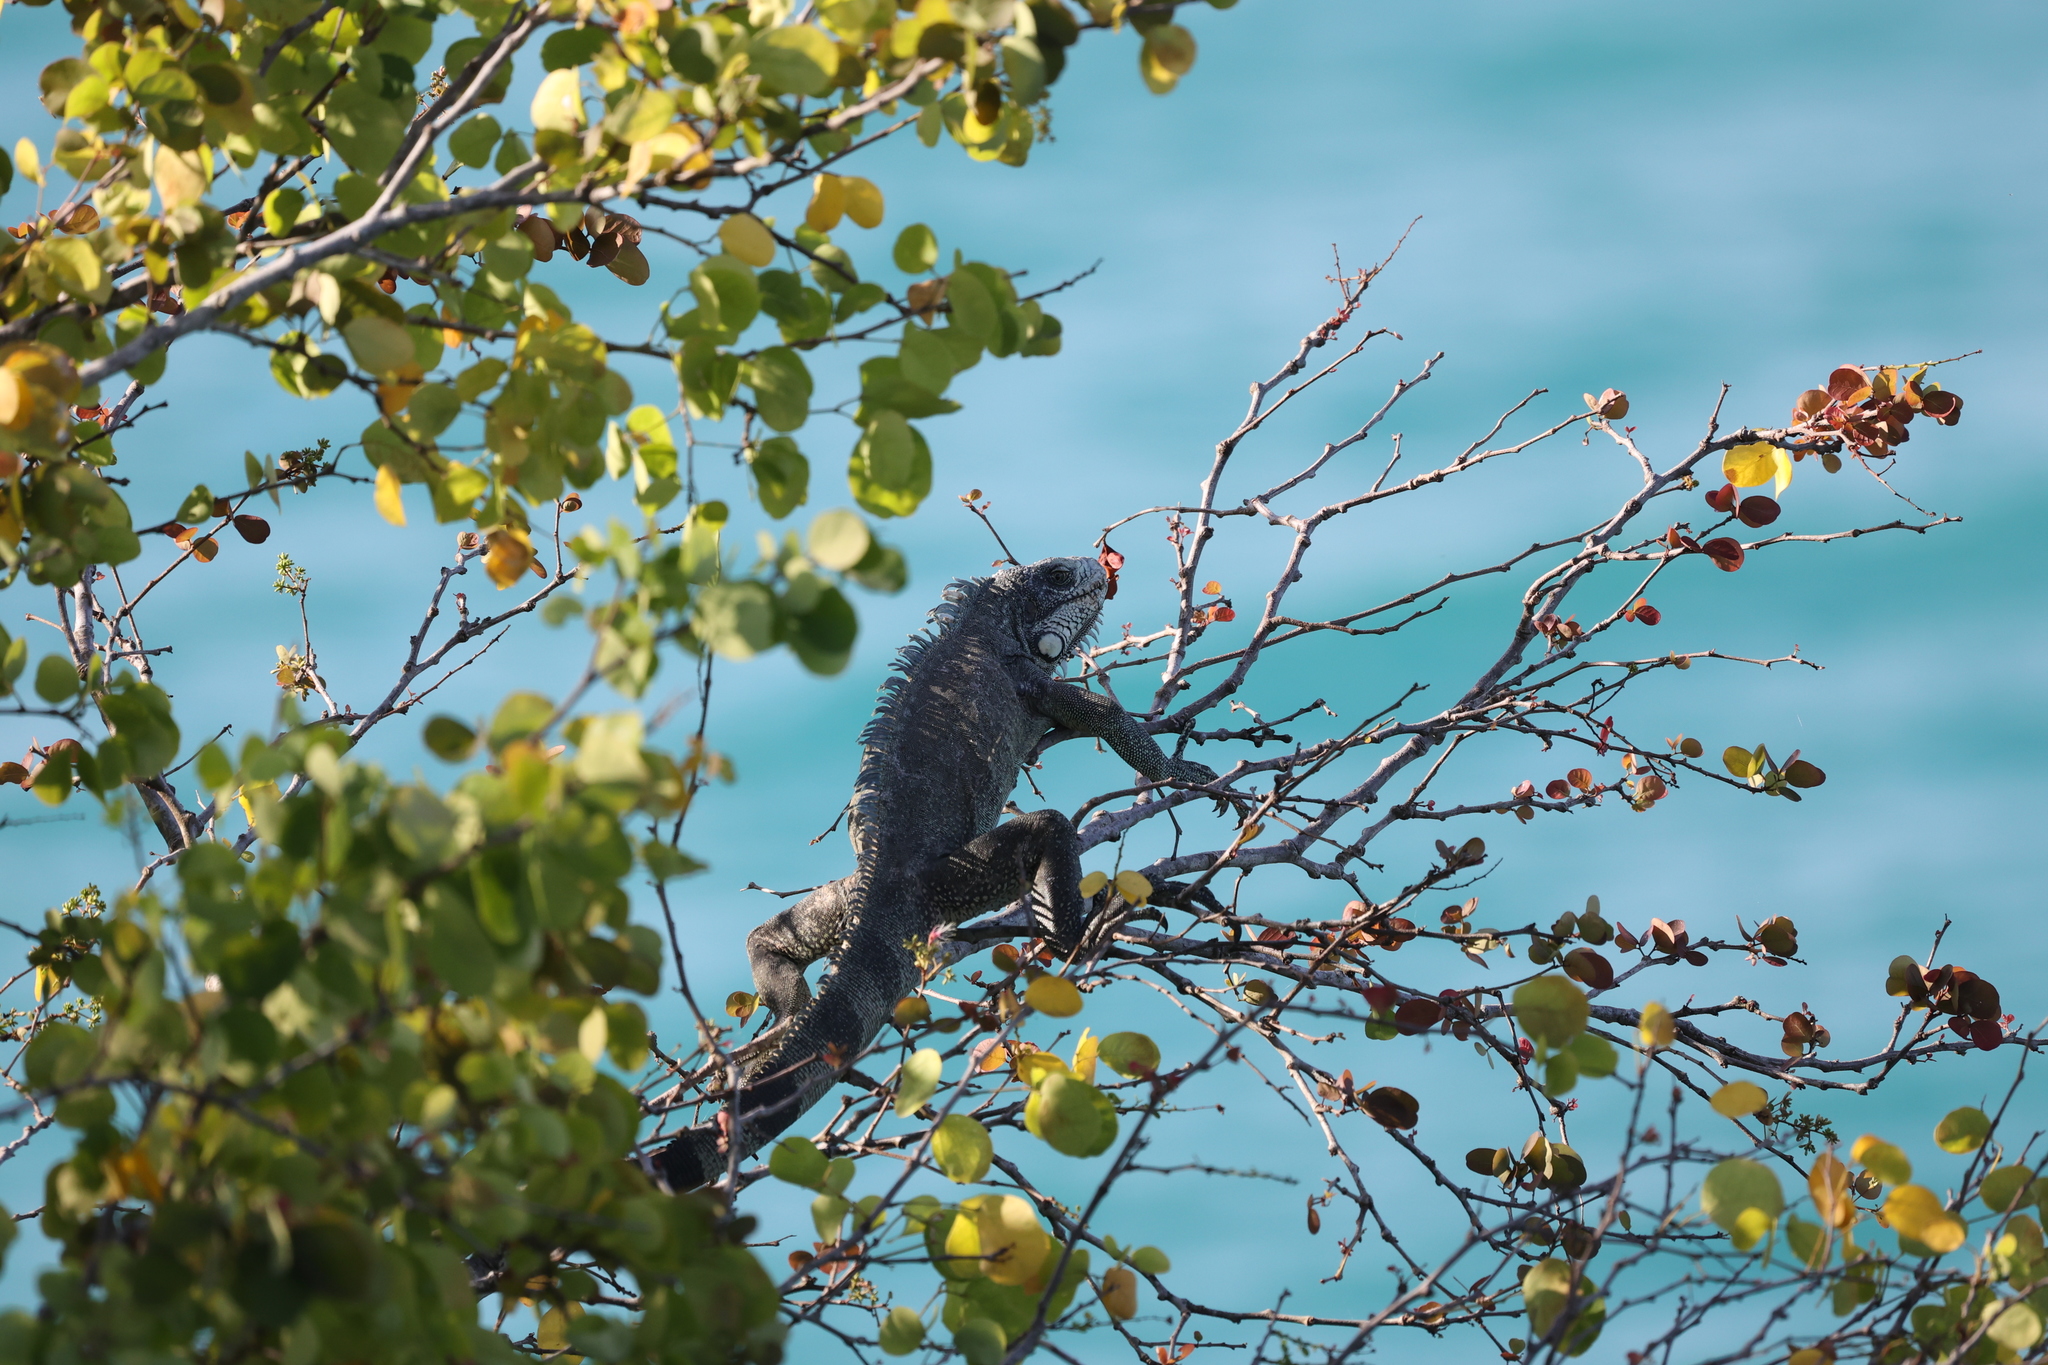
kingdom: Animalia
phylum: Chordata
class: Squamata
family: Iguanidae
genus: Iguana
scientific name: Iguana iguana
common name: Green iguana
